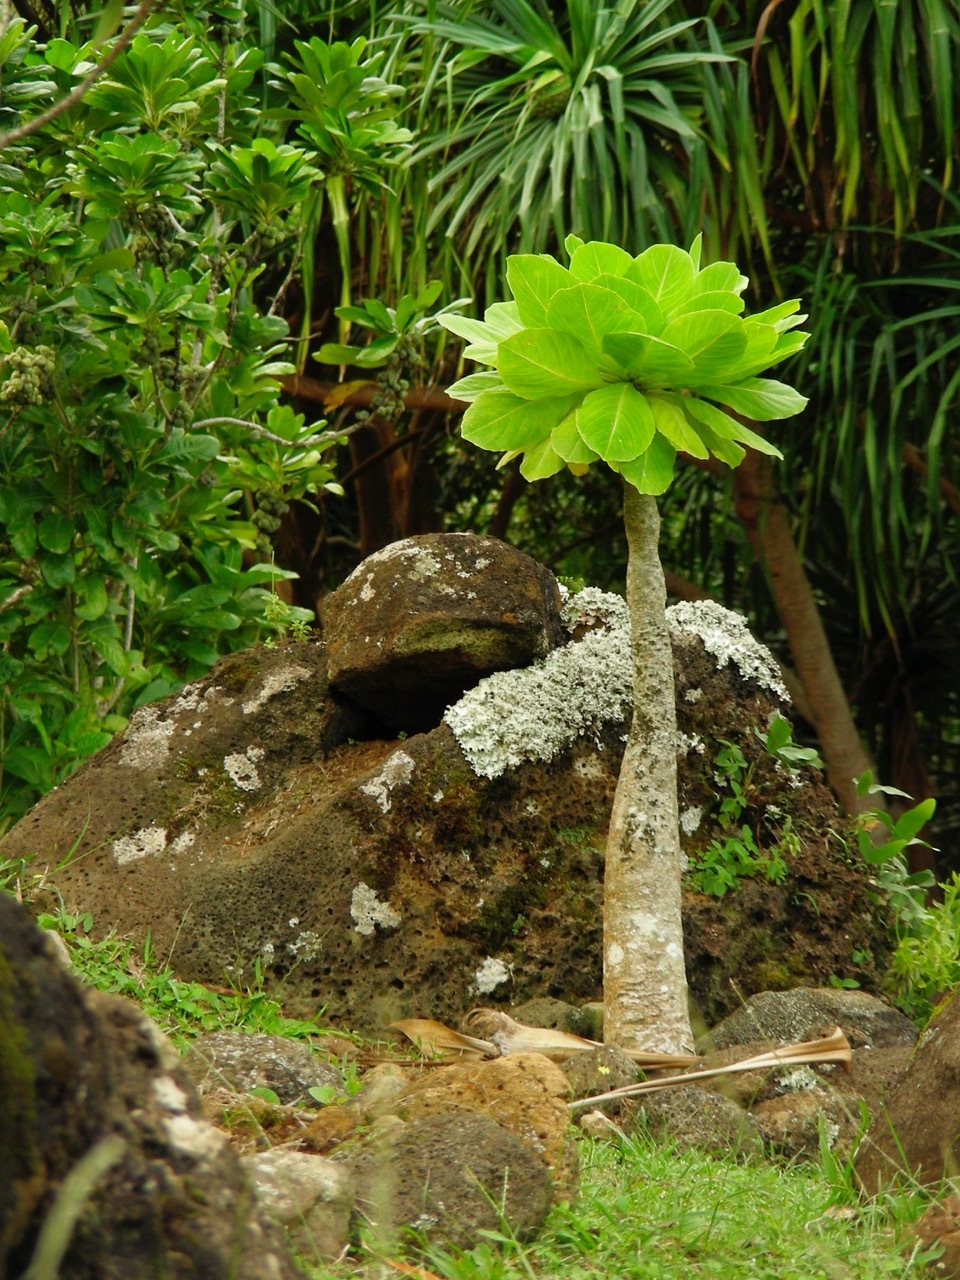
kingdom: Plantae
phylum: Tracheophyta
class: Magnoliopsida
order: Asterales
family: Campanulaceae
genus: Brighamia
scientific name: Brighamia insignis
